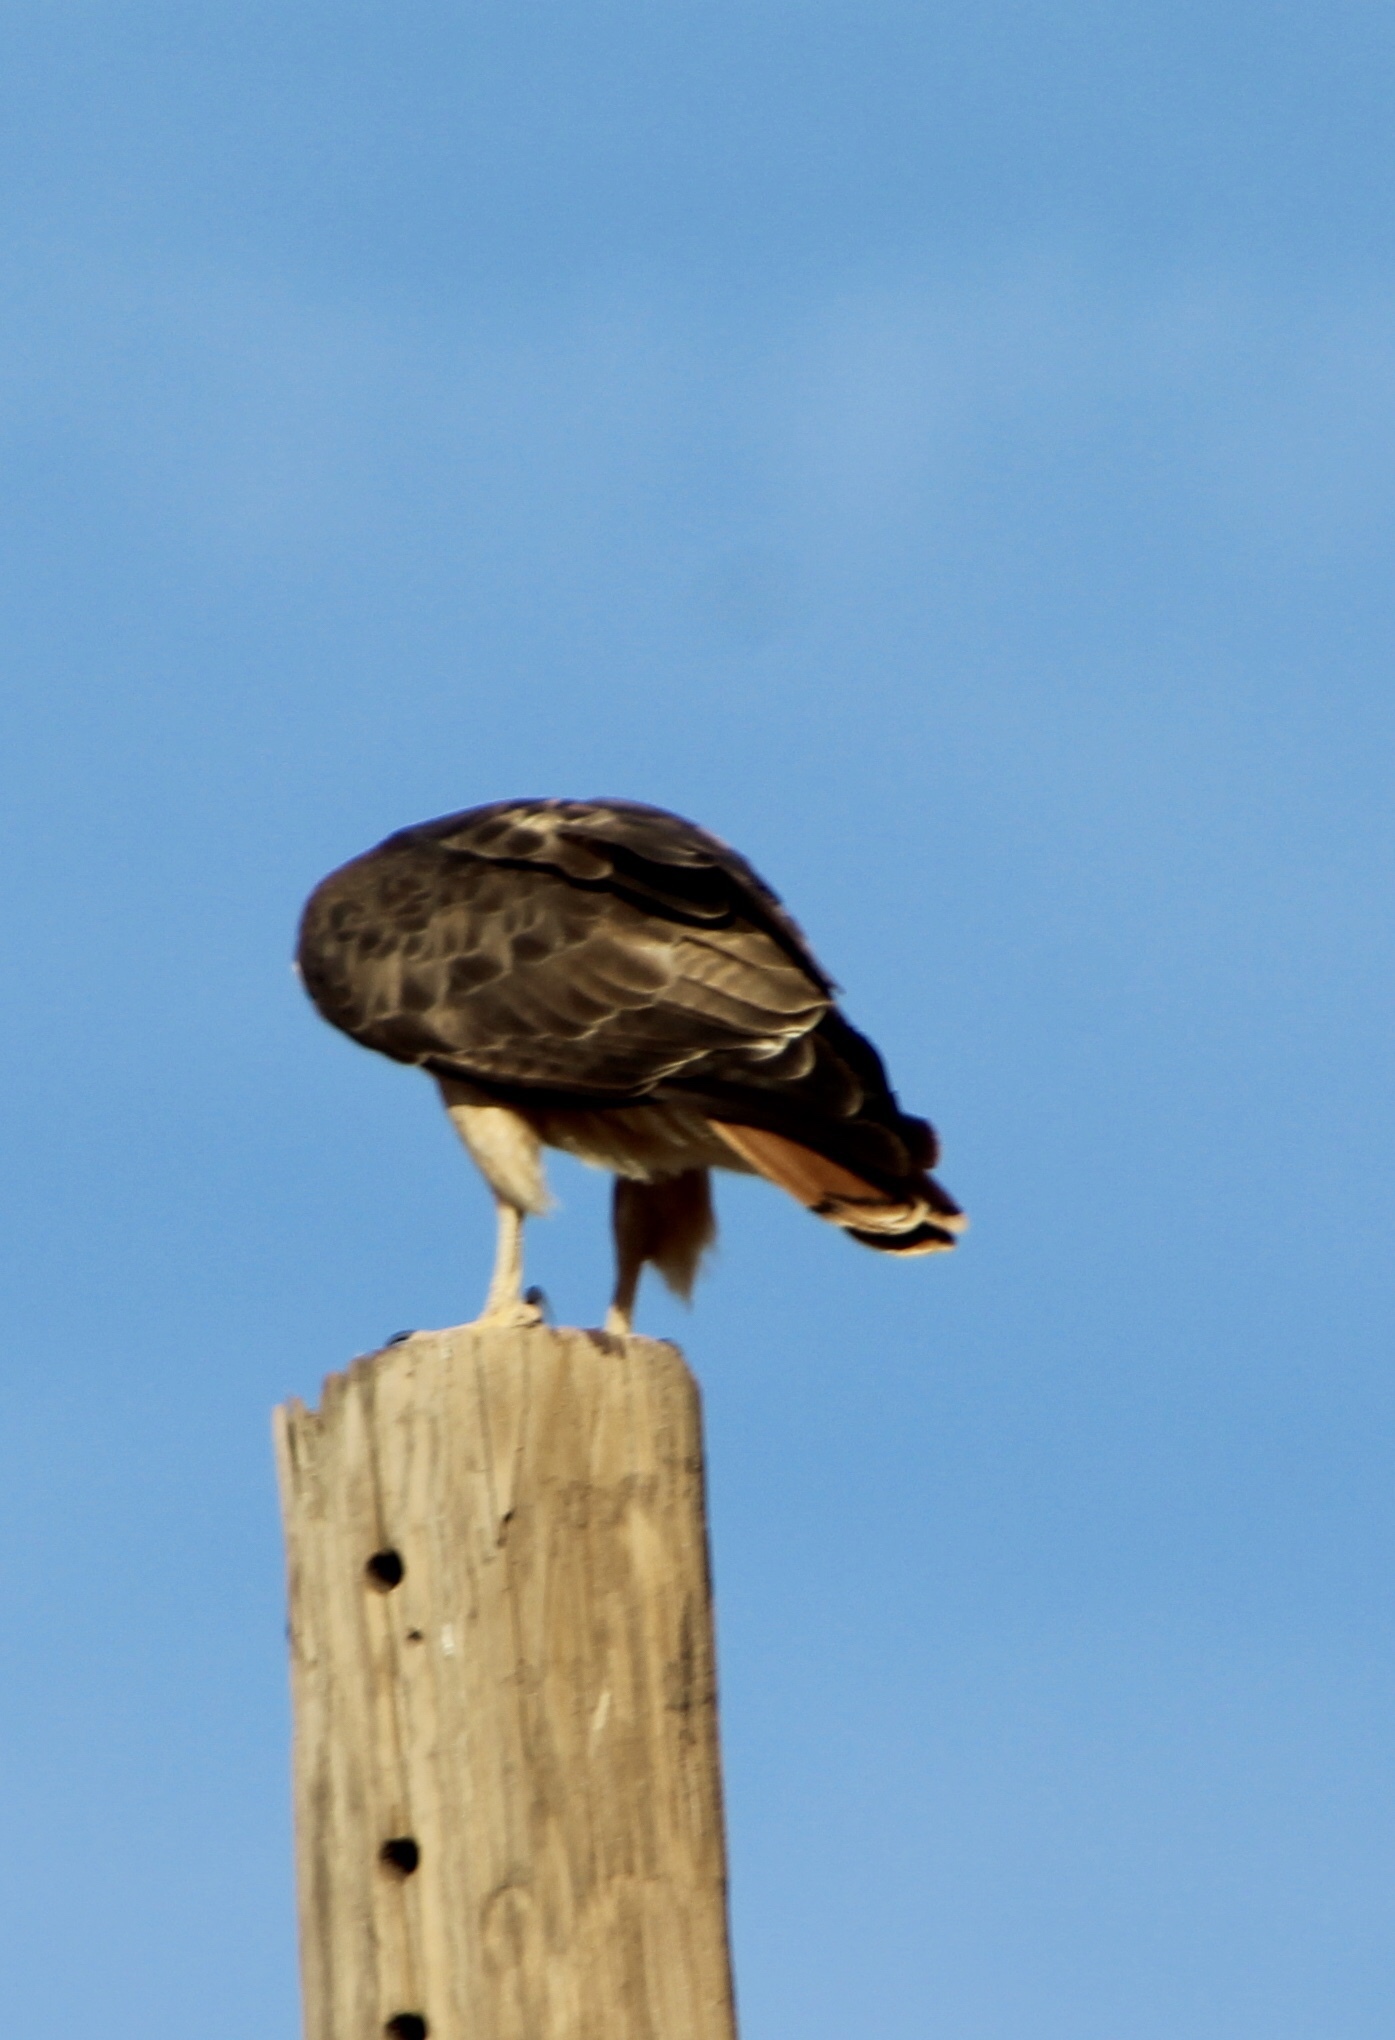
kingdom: Animalia
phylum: Chordata
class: Aves
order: Accipitriformes
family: Accipitridae
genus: Buteo
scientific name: Buteo jamaicensis
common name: Red-tailed hawk
